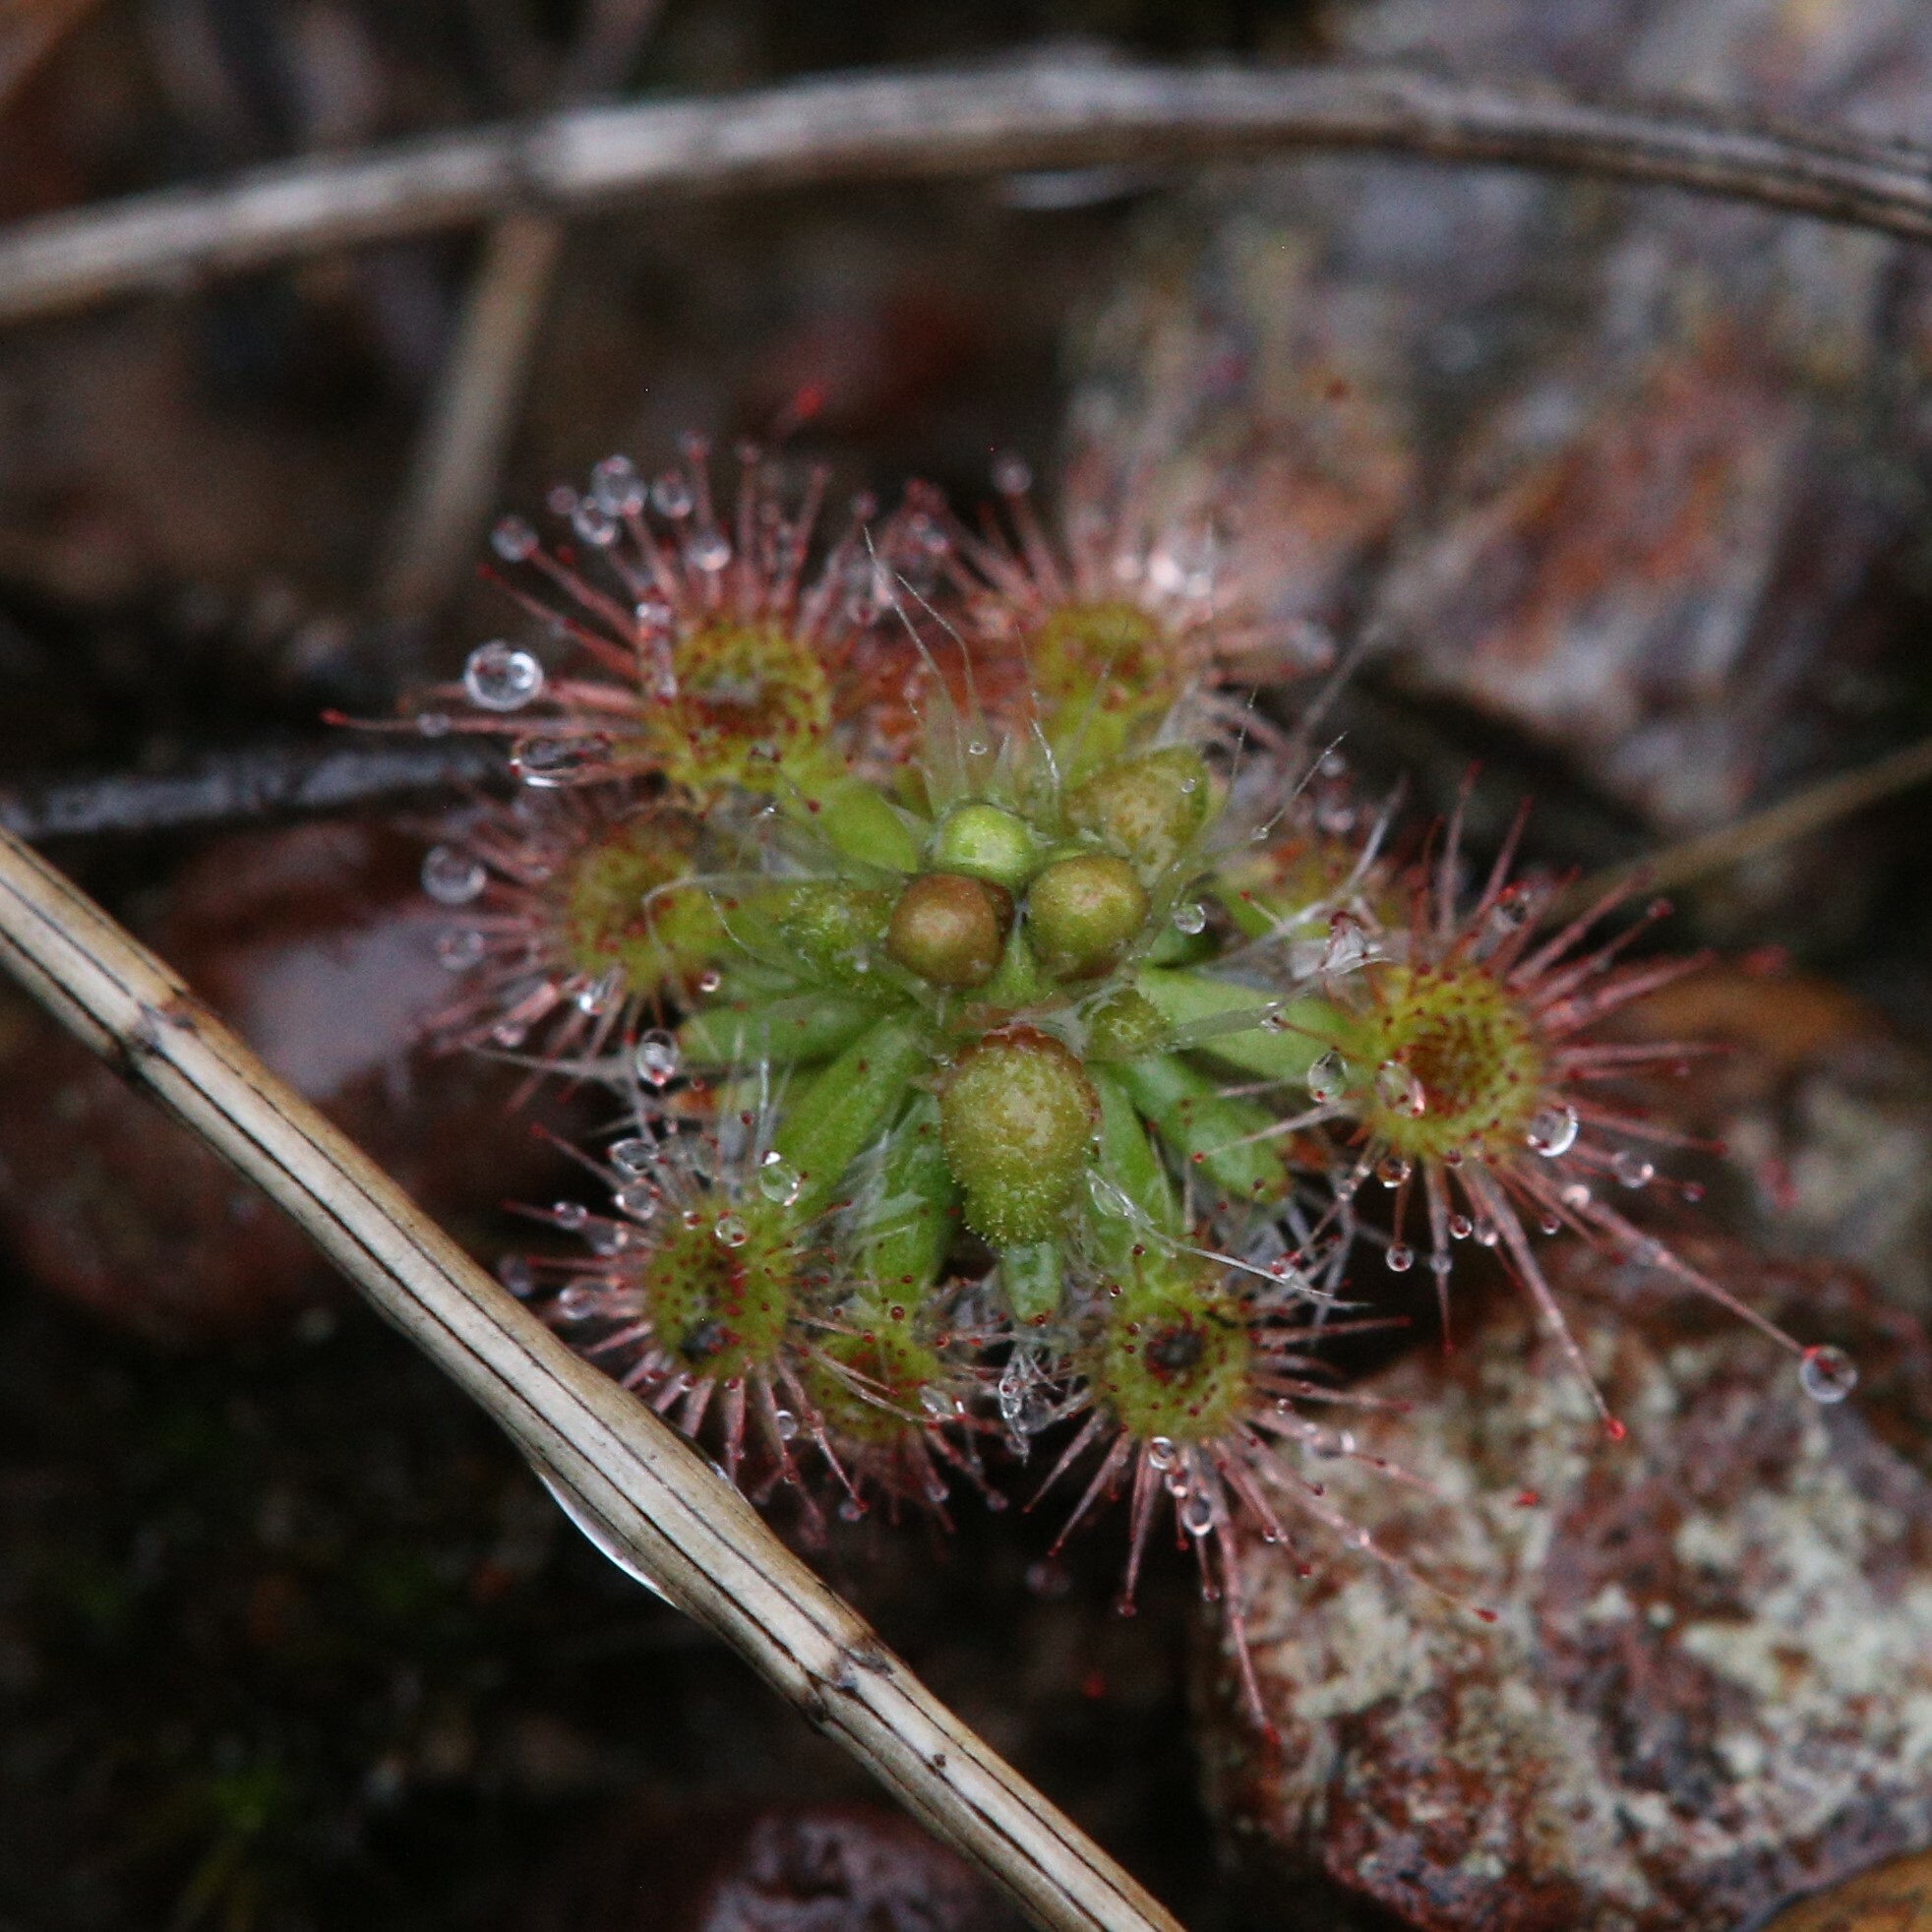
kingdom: Plantae
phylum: Tracheophyta
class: Magnoliopsida
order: Caryophyllales
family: Droseraceae
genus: Drosera
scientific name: Drosera spilos
